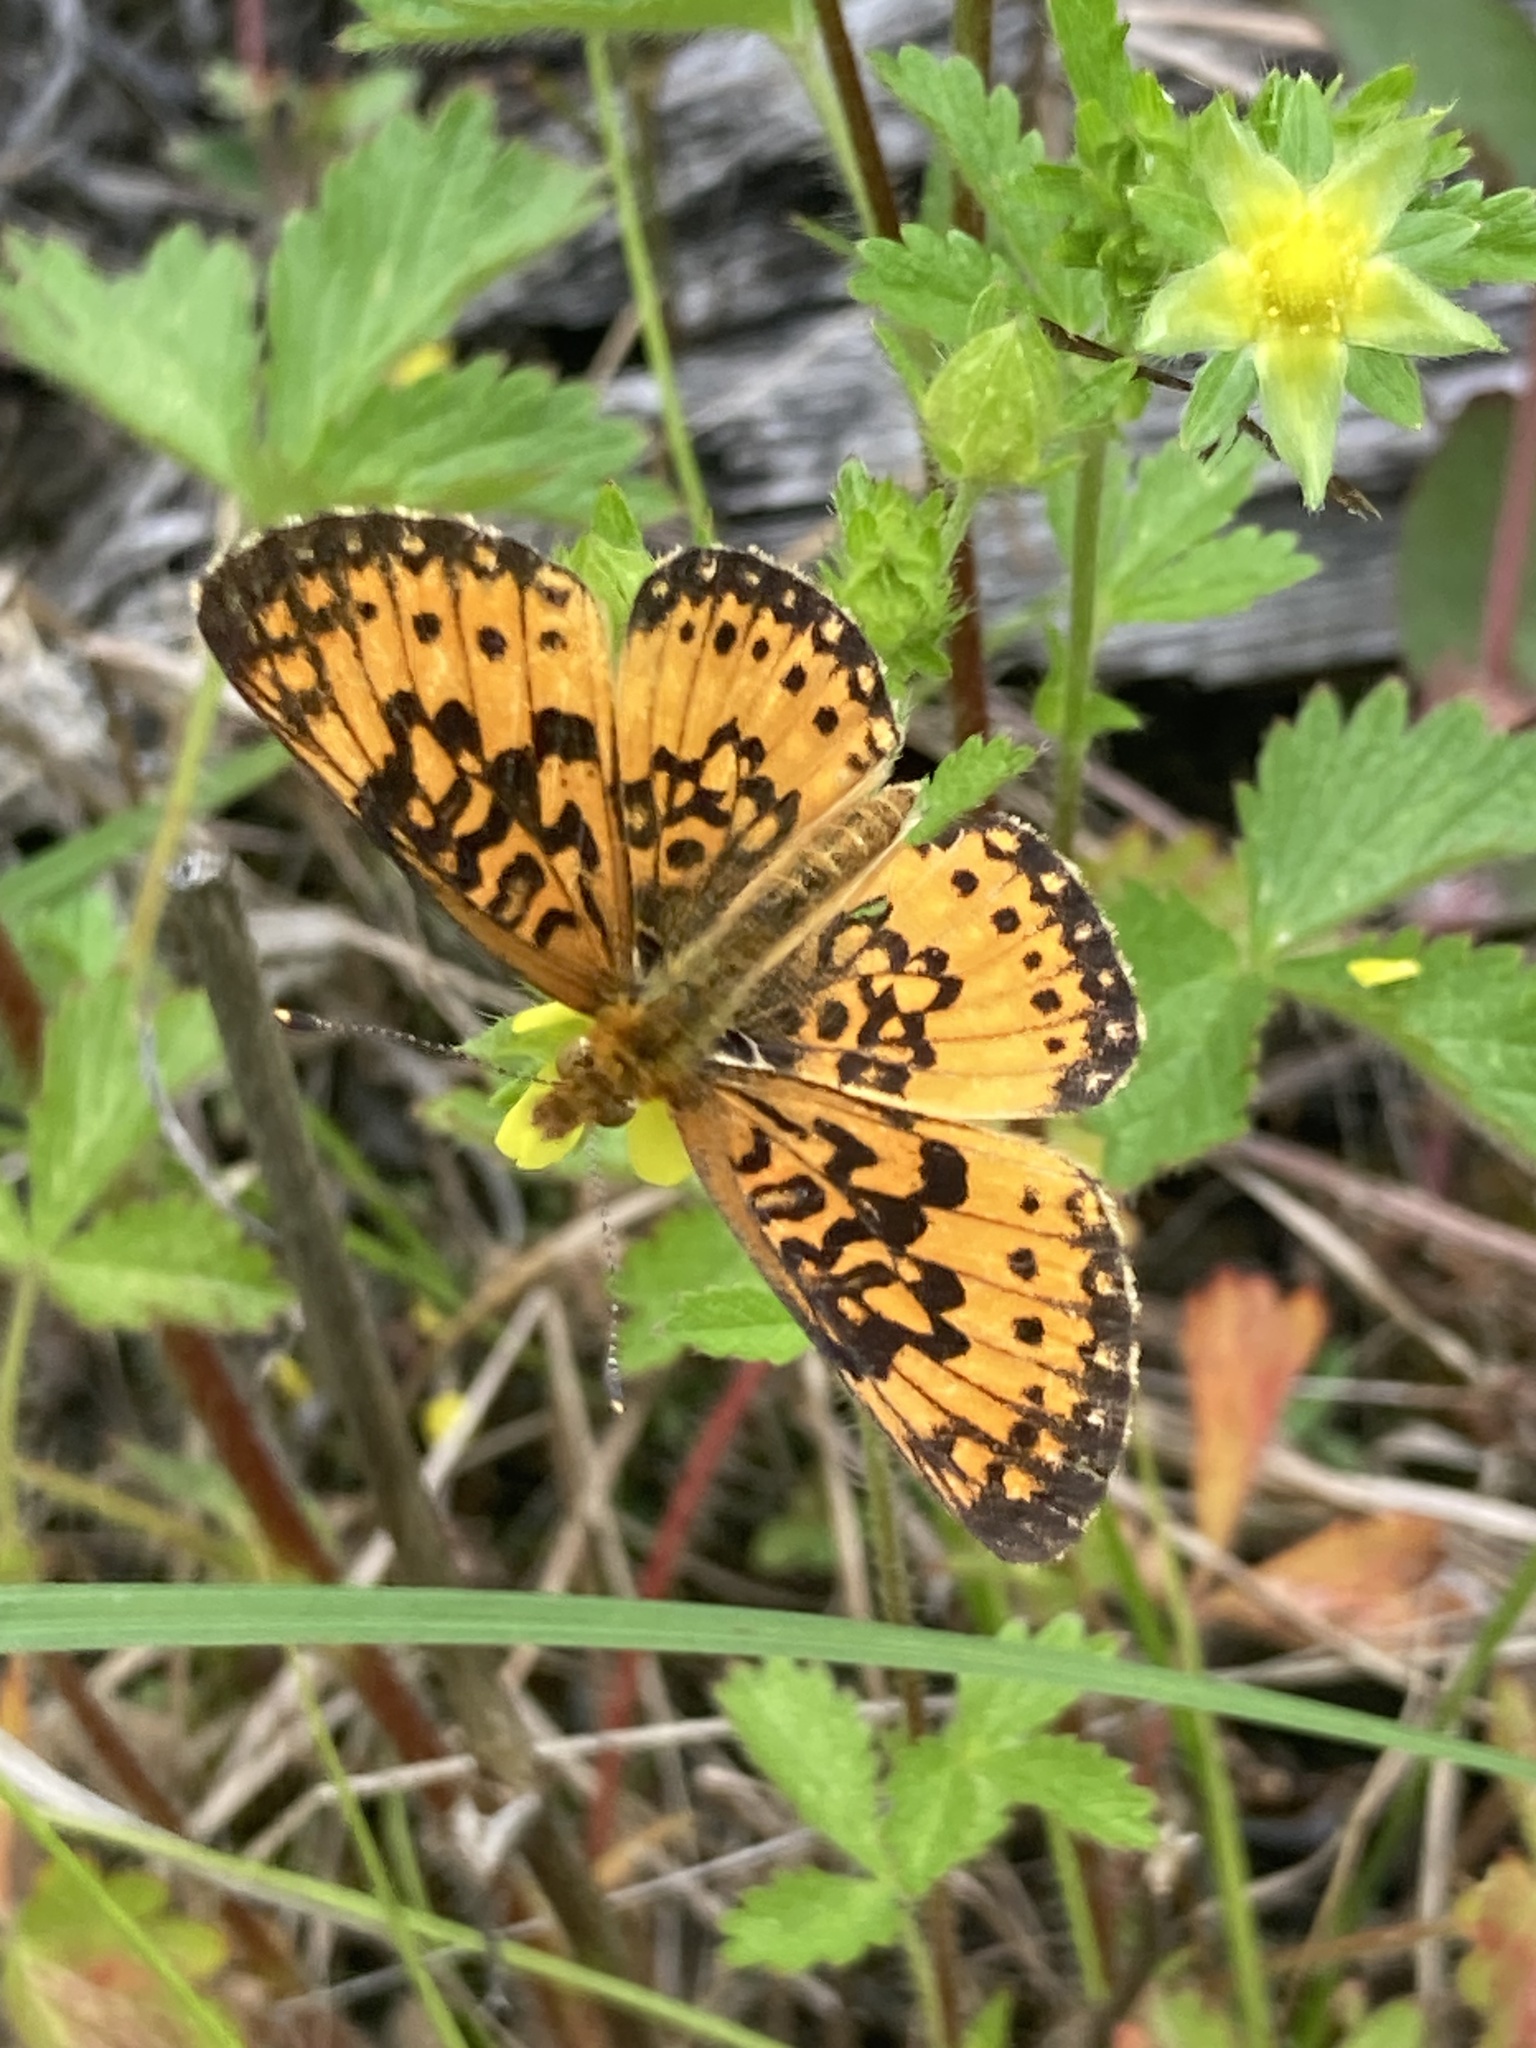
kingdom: Animalia
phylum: Arthropoda
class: Insecta
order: Lepidoptera
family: Nymphalidae
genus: Boloria
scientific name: Boloria
